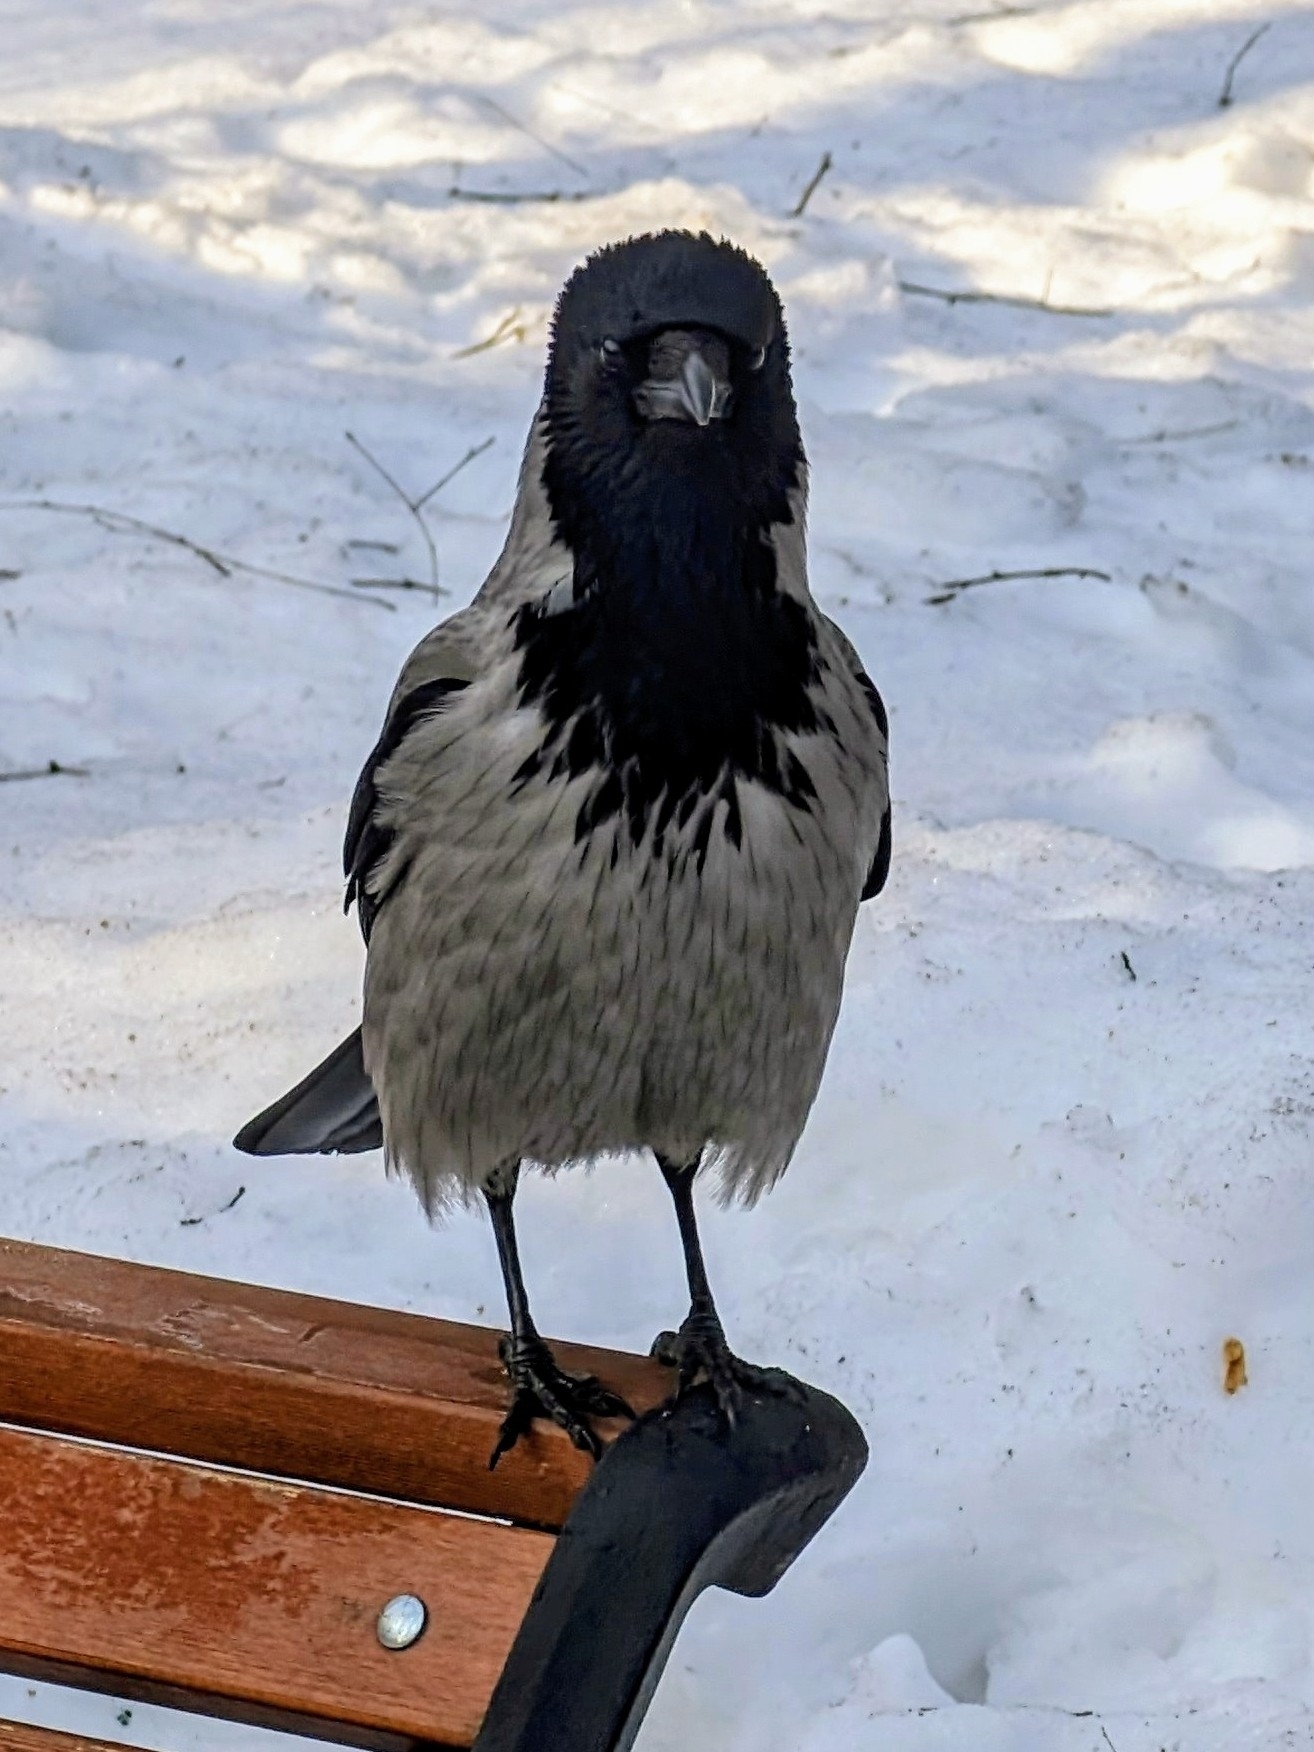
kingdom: Animalia
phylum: Chordata
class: Aves
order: Passeriformes
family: Corvidae
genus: Corvus
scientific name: Corvus cornix
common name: Hooded crow
